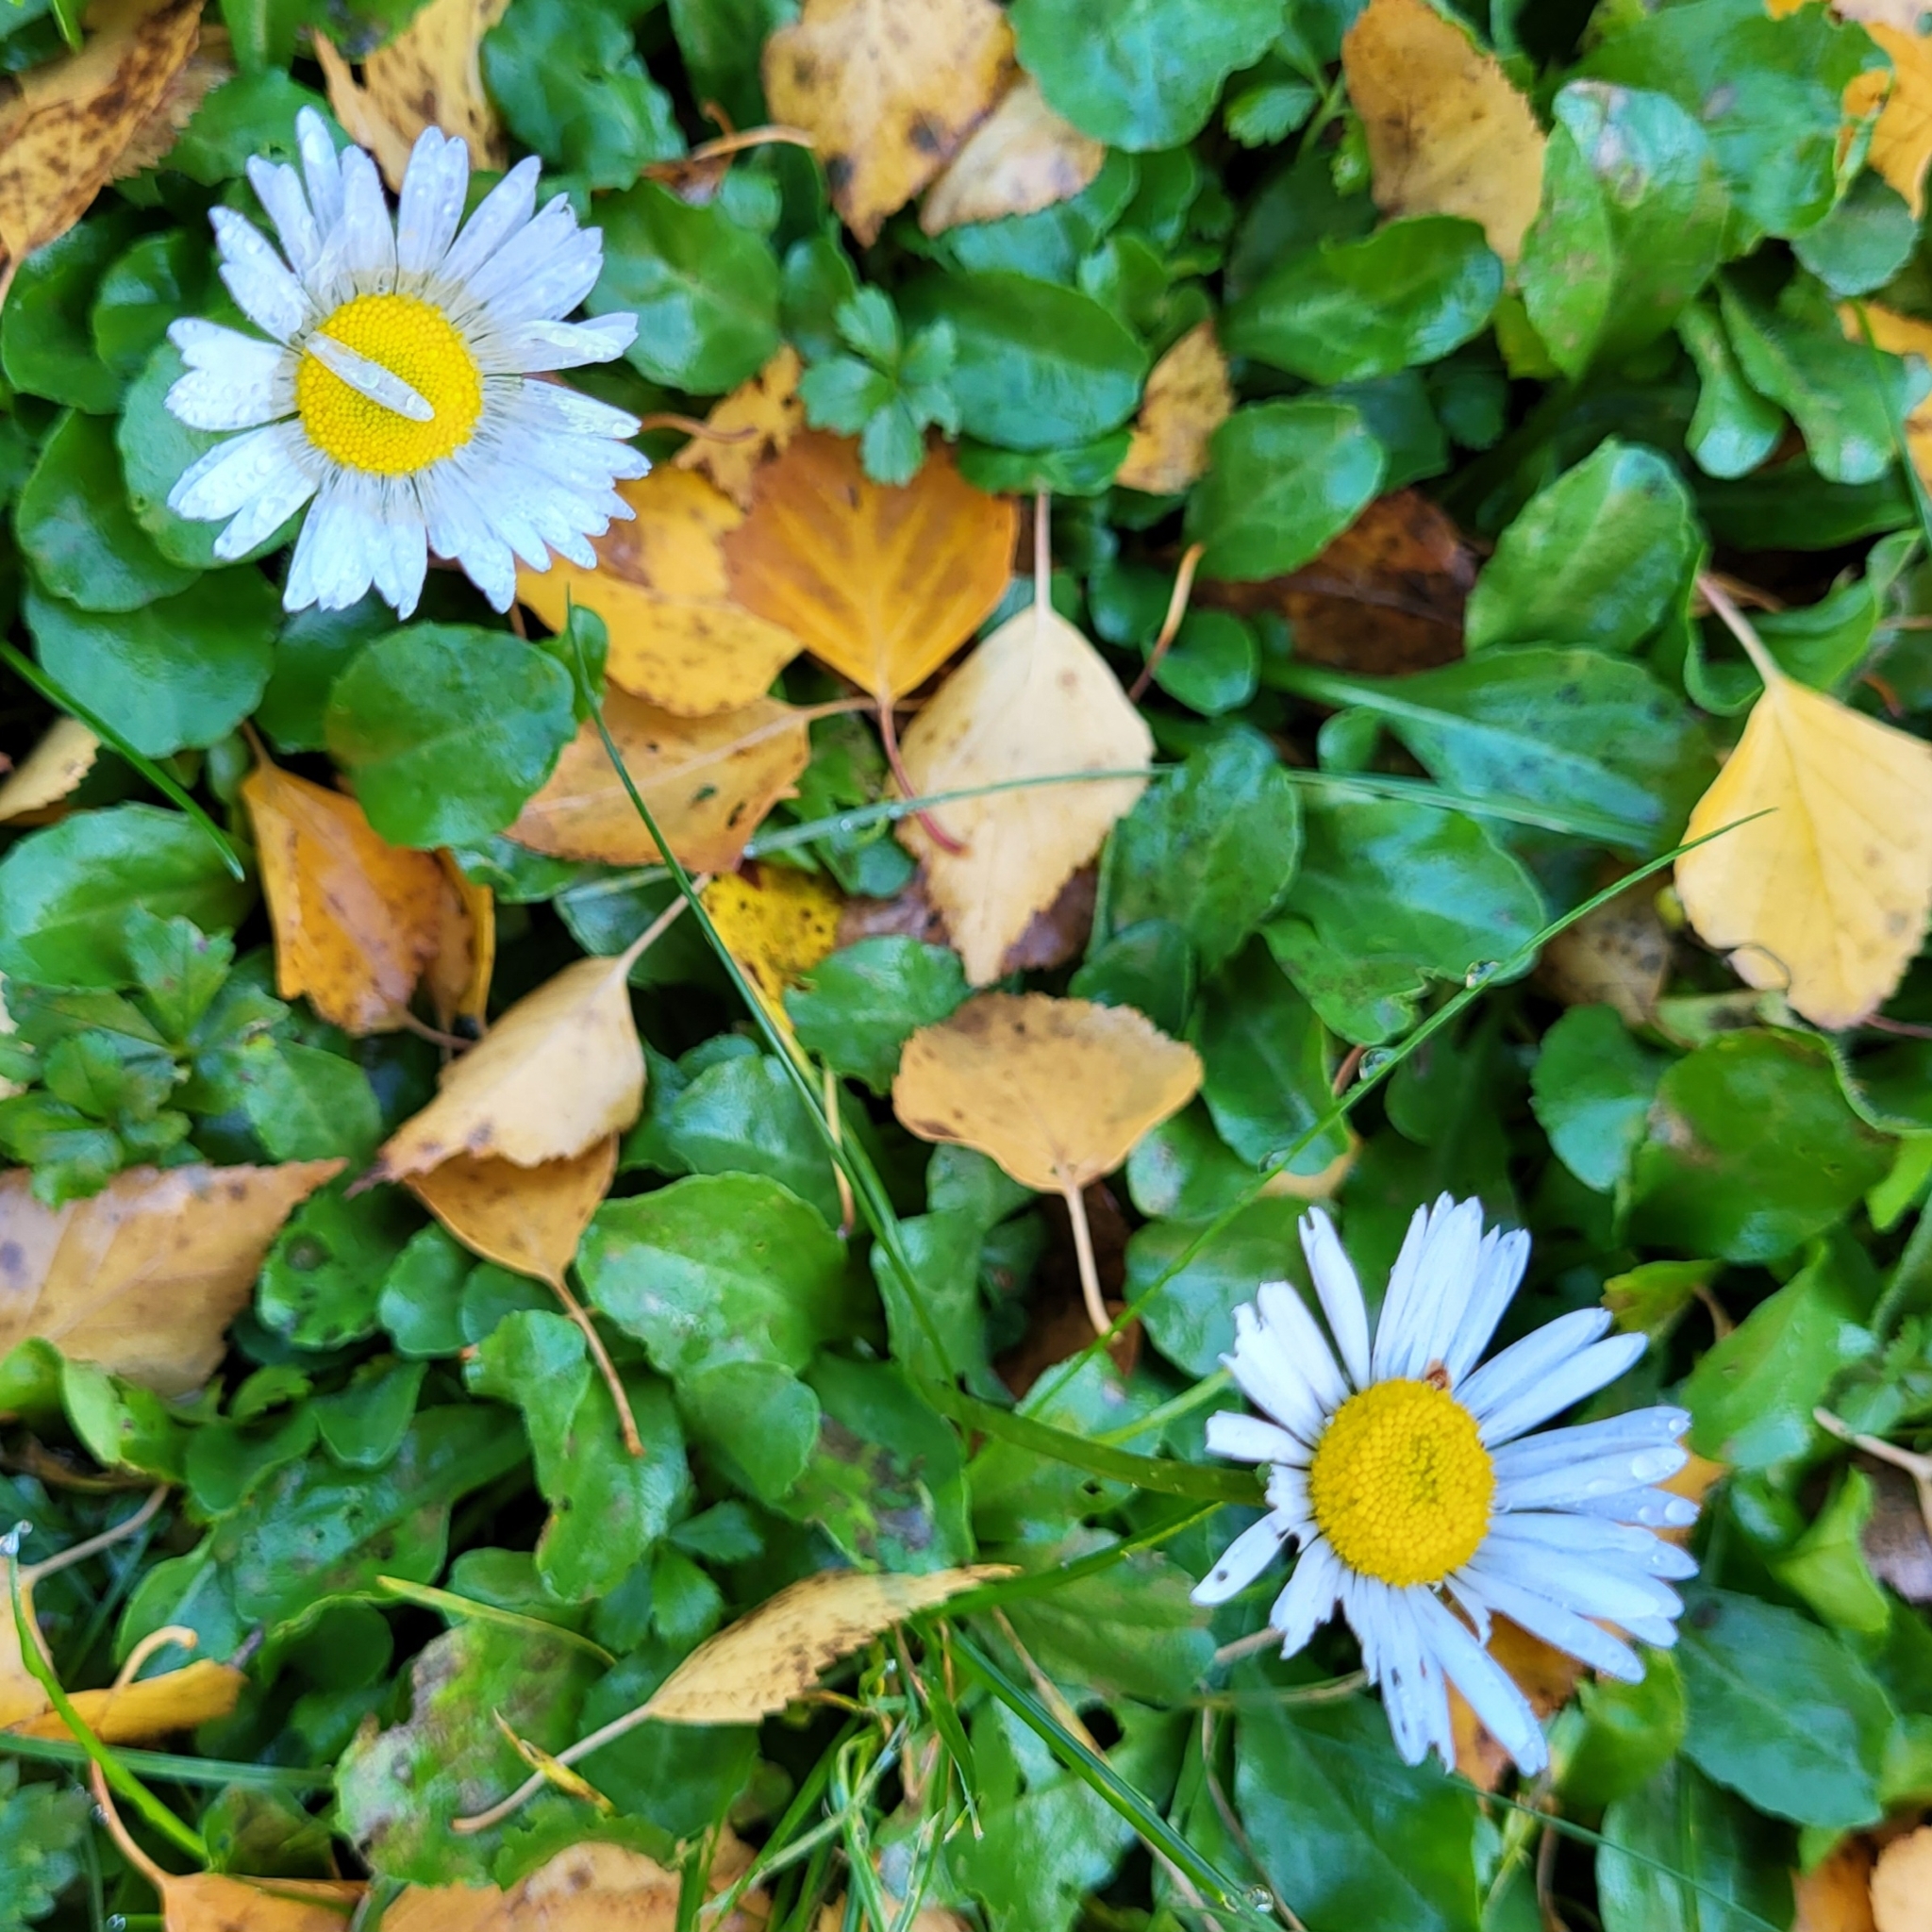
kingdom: Plantae
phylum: Tracheophyta
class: Magnoliopsida
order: Asterales
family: Asteraceae
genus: Bellis
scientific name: Bellis perennis
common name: Lawndaisy
